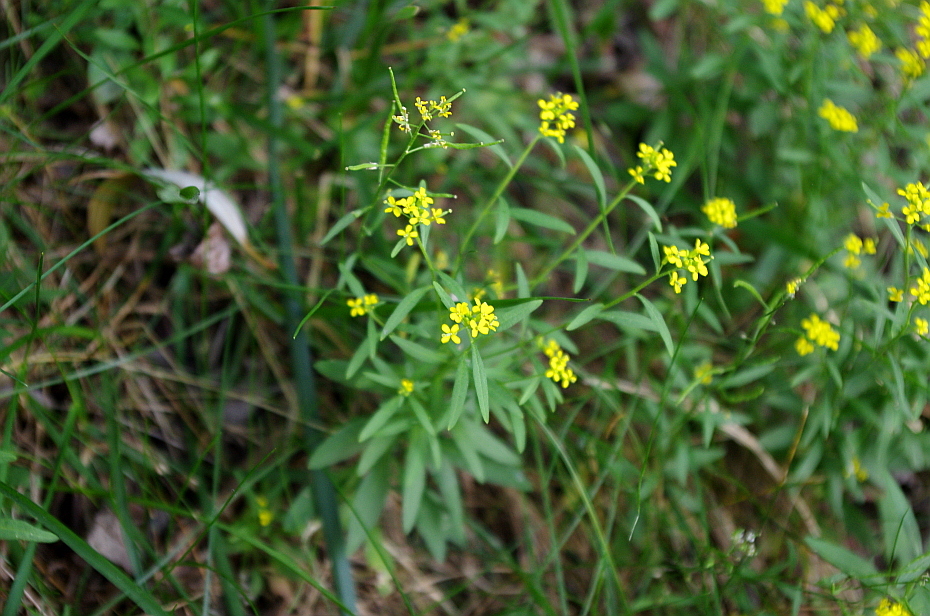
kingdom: Plantae
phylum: Tracheophyta
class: Magnoliopsida
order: Brassicales
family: Brassicaceae
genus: Erysimum
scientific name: Erysimum cheiranthoides
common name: Treacle mustard
